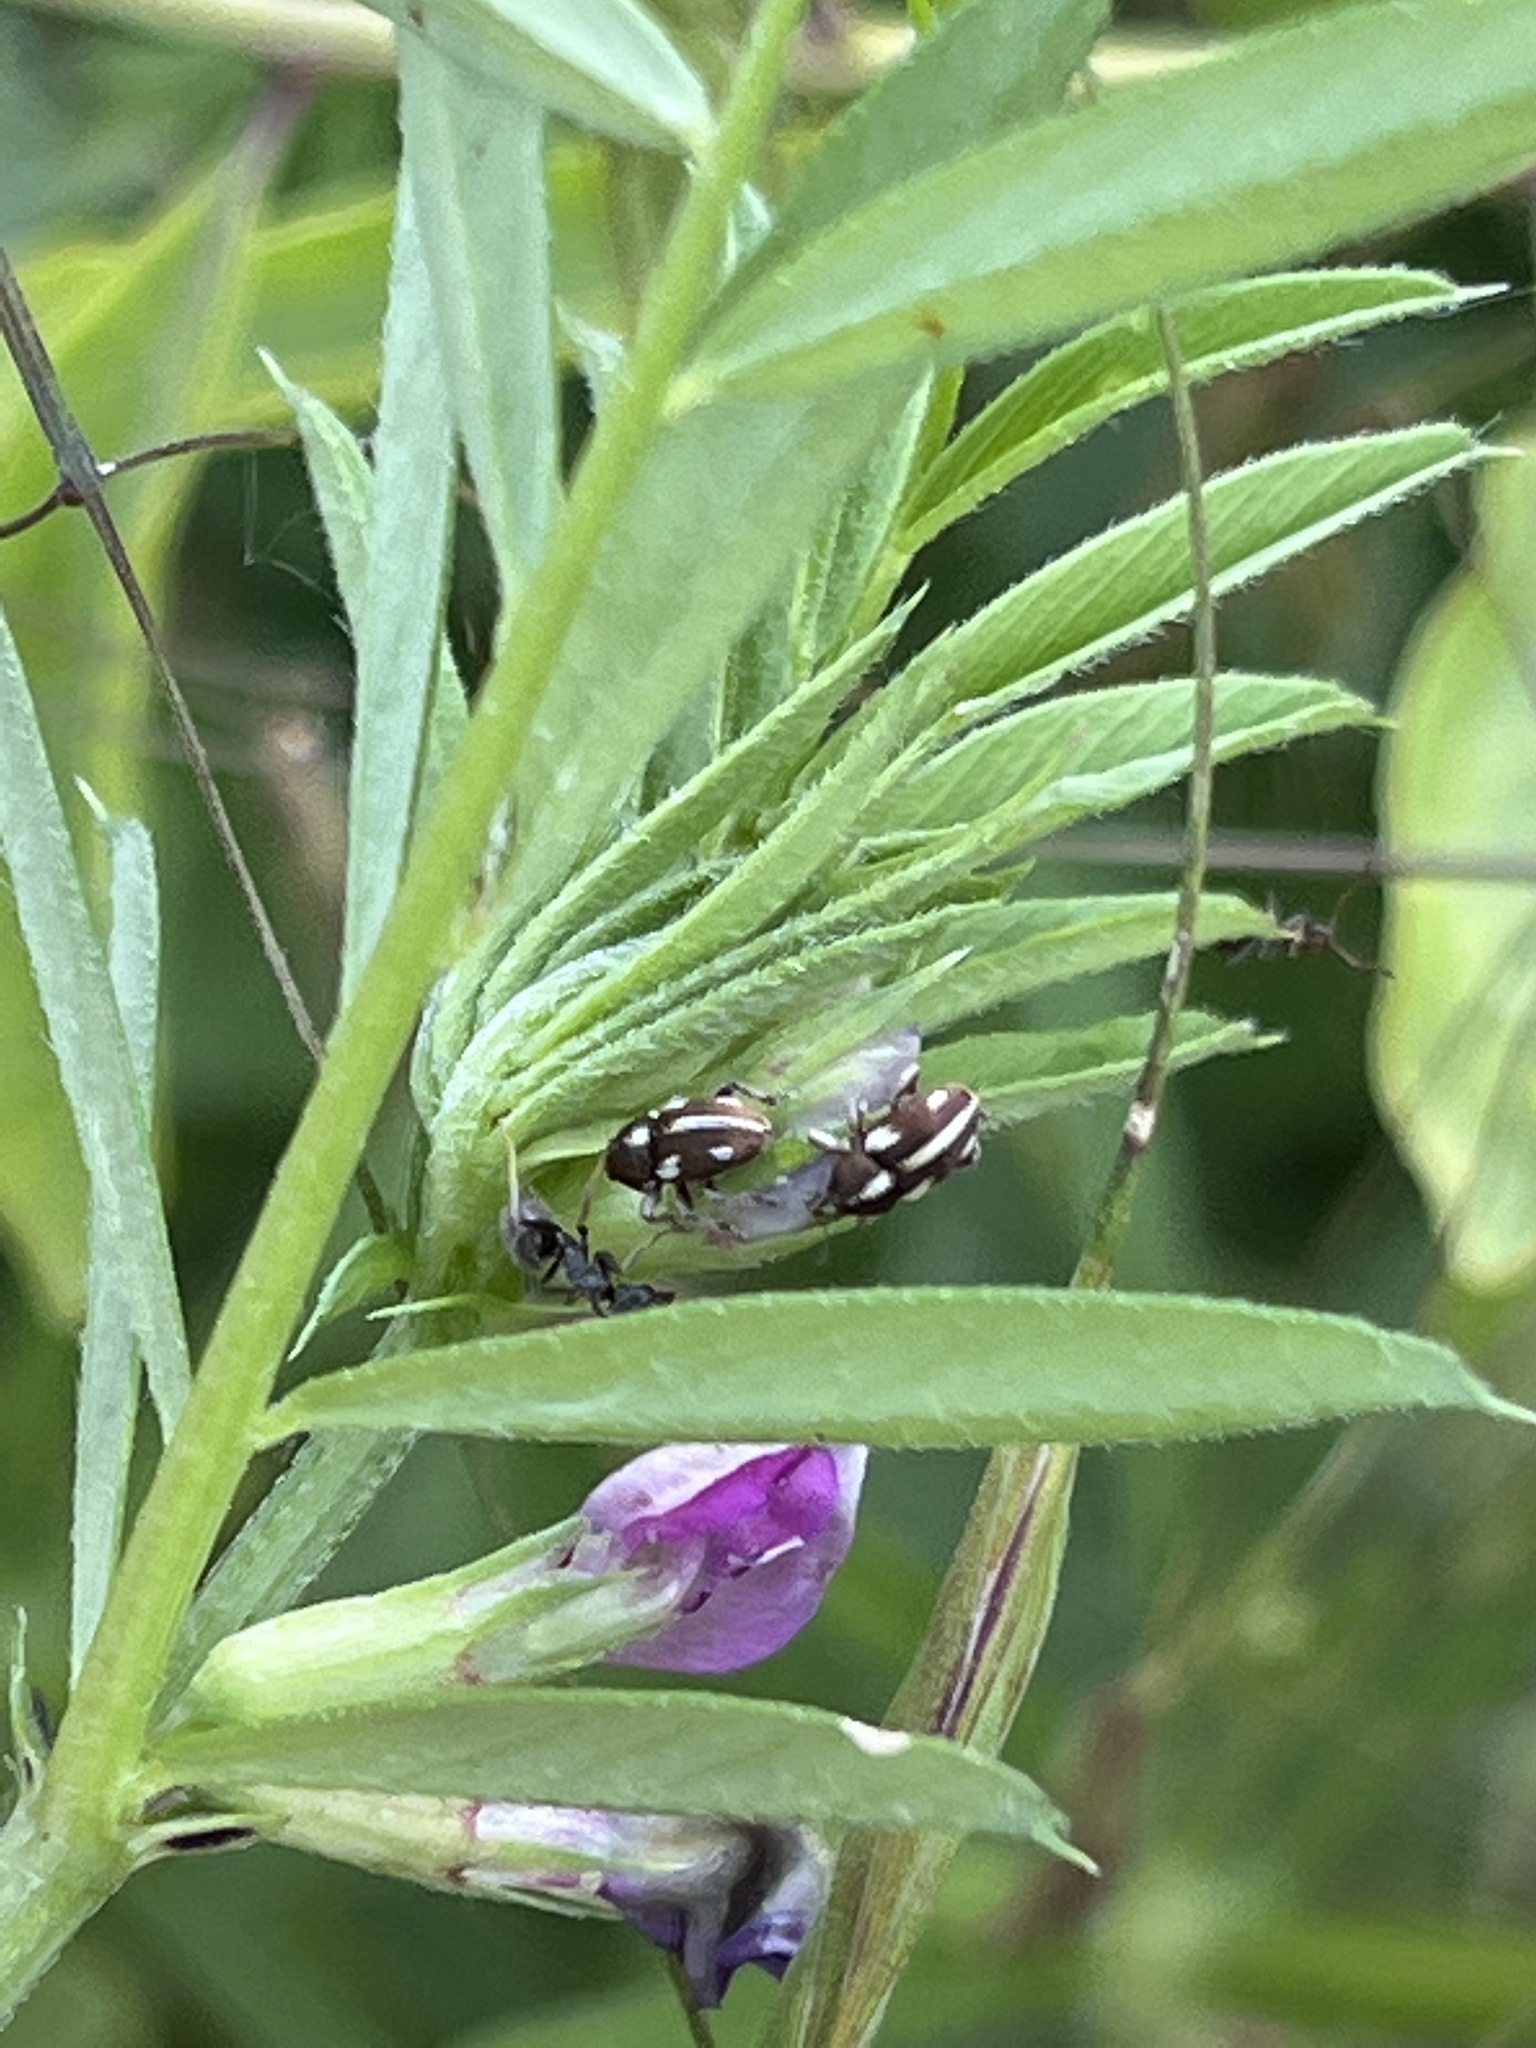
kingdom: Animalia
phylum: Arthropoda
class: Insecta
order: Coleoptera
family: Curculionidae
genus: Tychius
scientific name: Tychius quinquepunctatus
